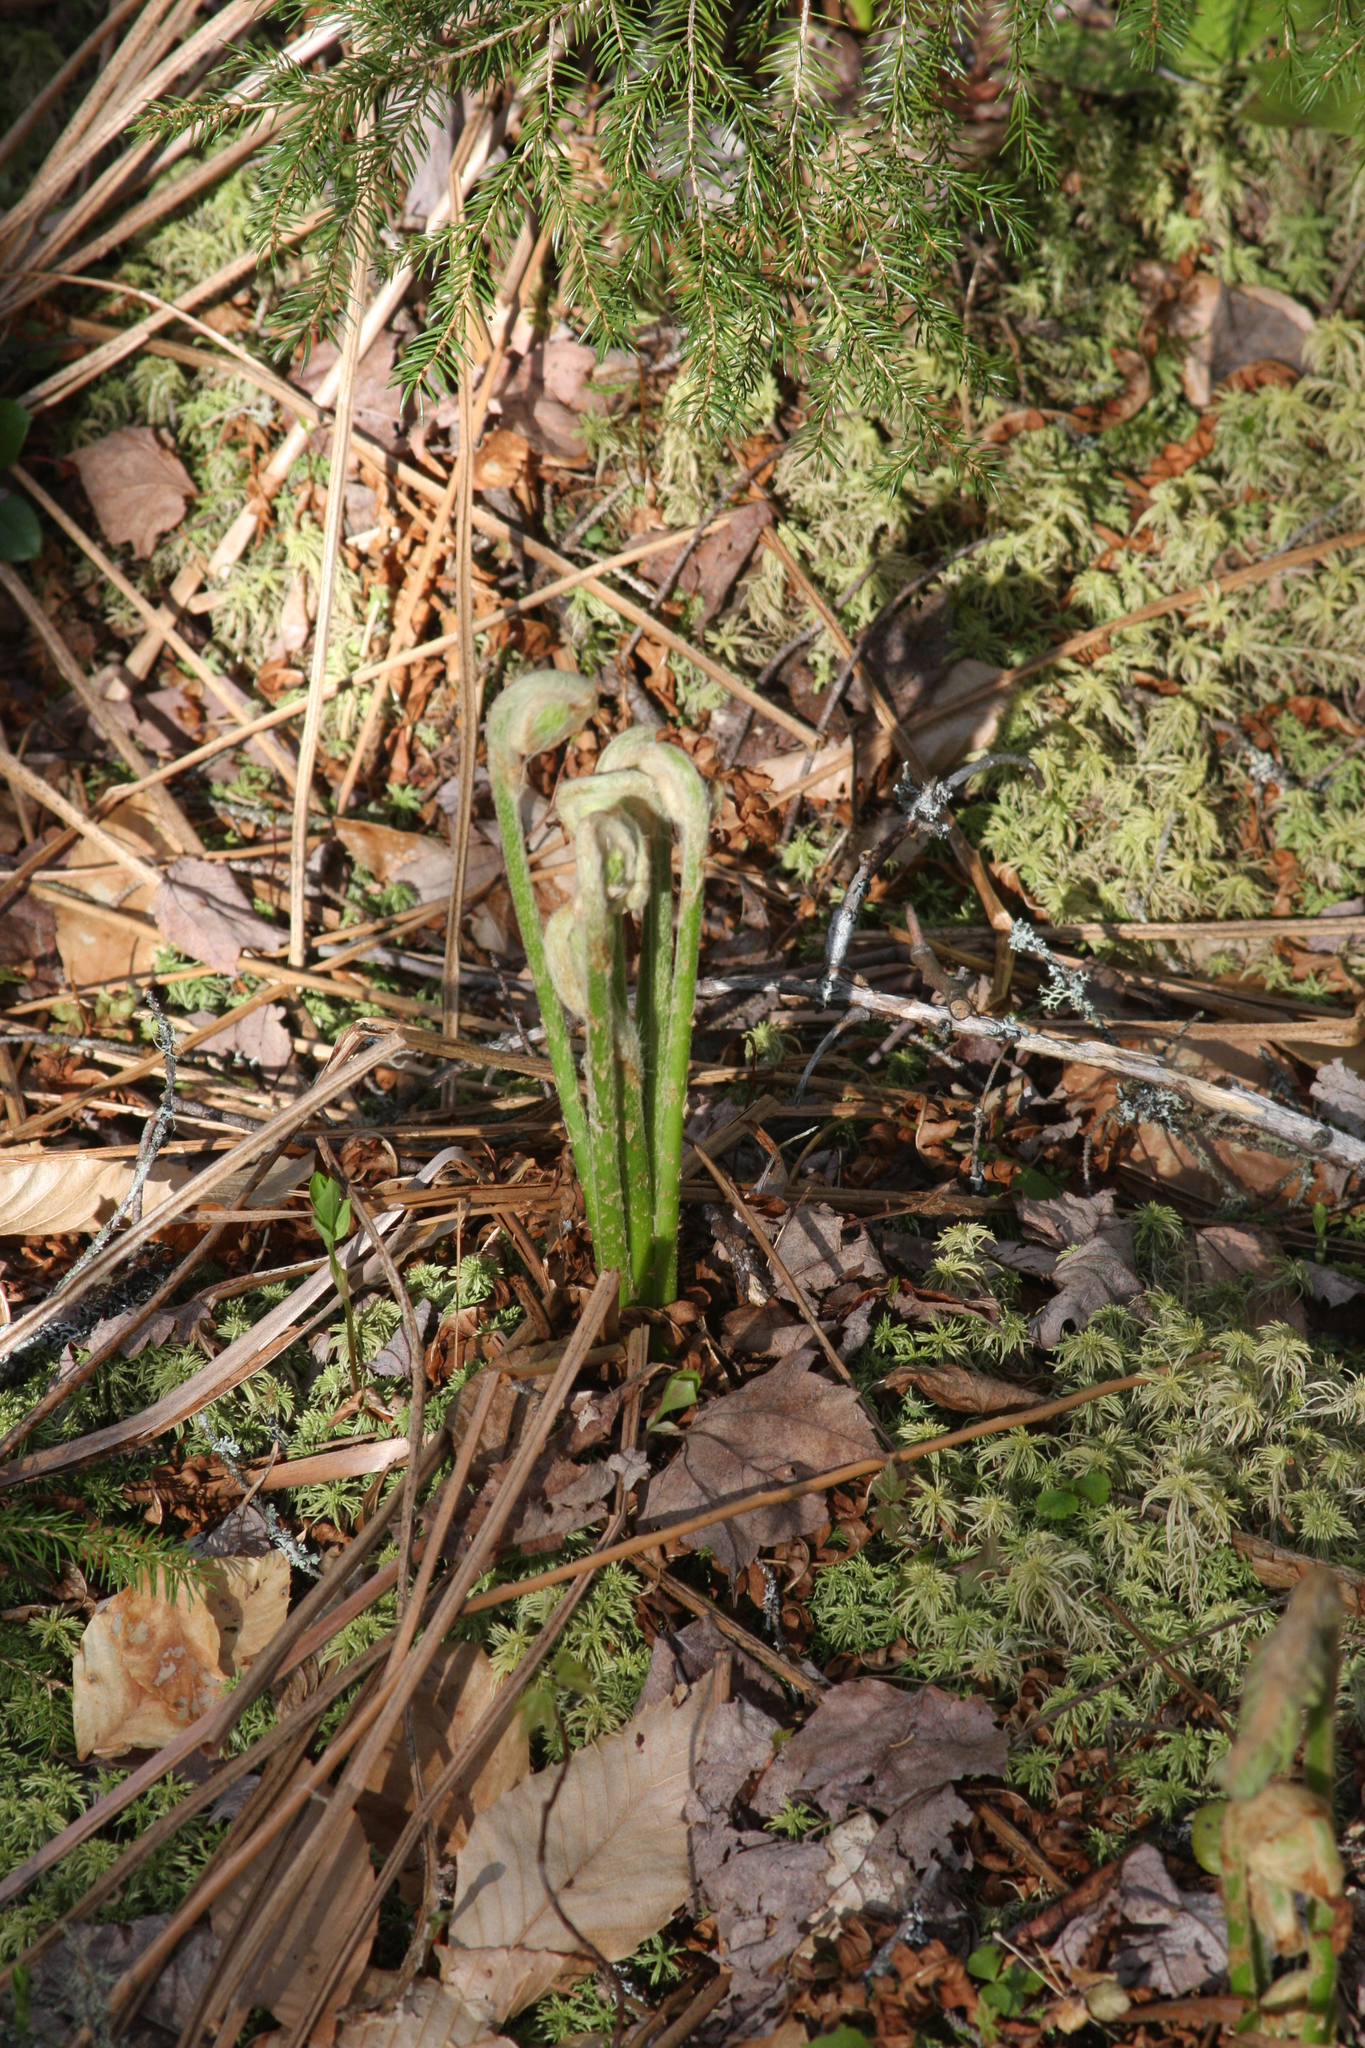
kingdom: Plantae
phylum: Tracheophyta
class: Polypodiopsida
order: Osmundales
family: Osmundaceae
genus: Claytosmunda
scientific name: Claytosmunda claytoniana
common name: Clayton's fern
